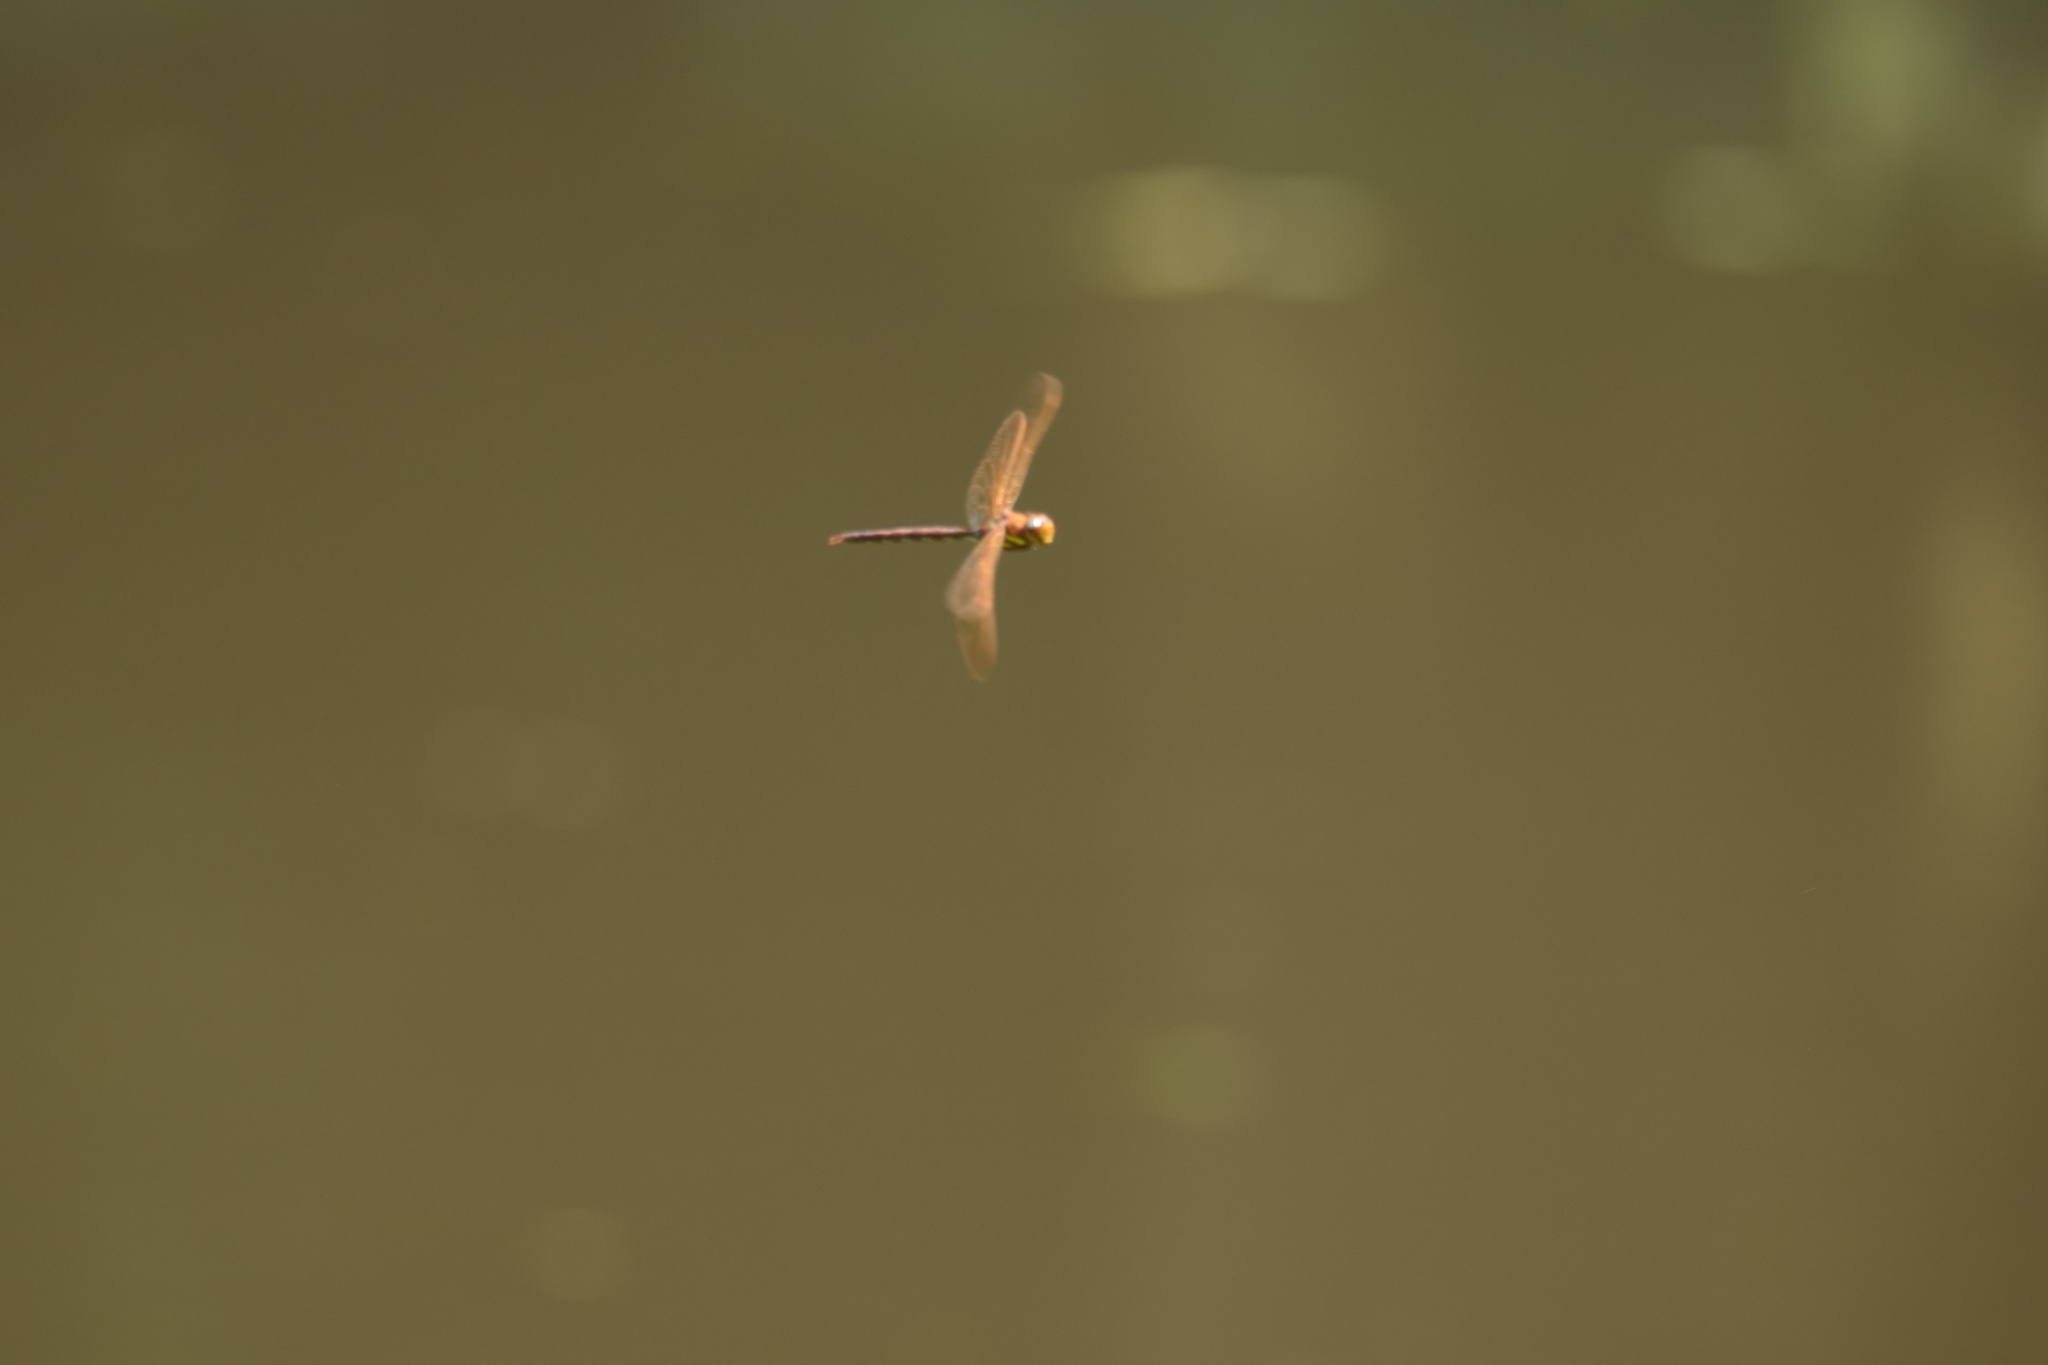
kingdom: Animalia
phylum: Arthropoda
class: Insecta
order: Odonata
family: Aeshnidae
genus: Aeshna
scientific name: Aeshna grandis
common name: Brown hawker
